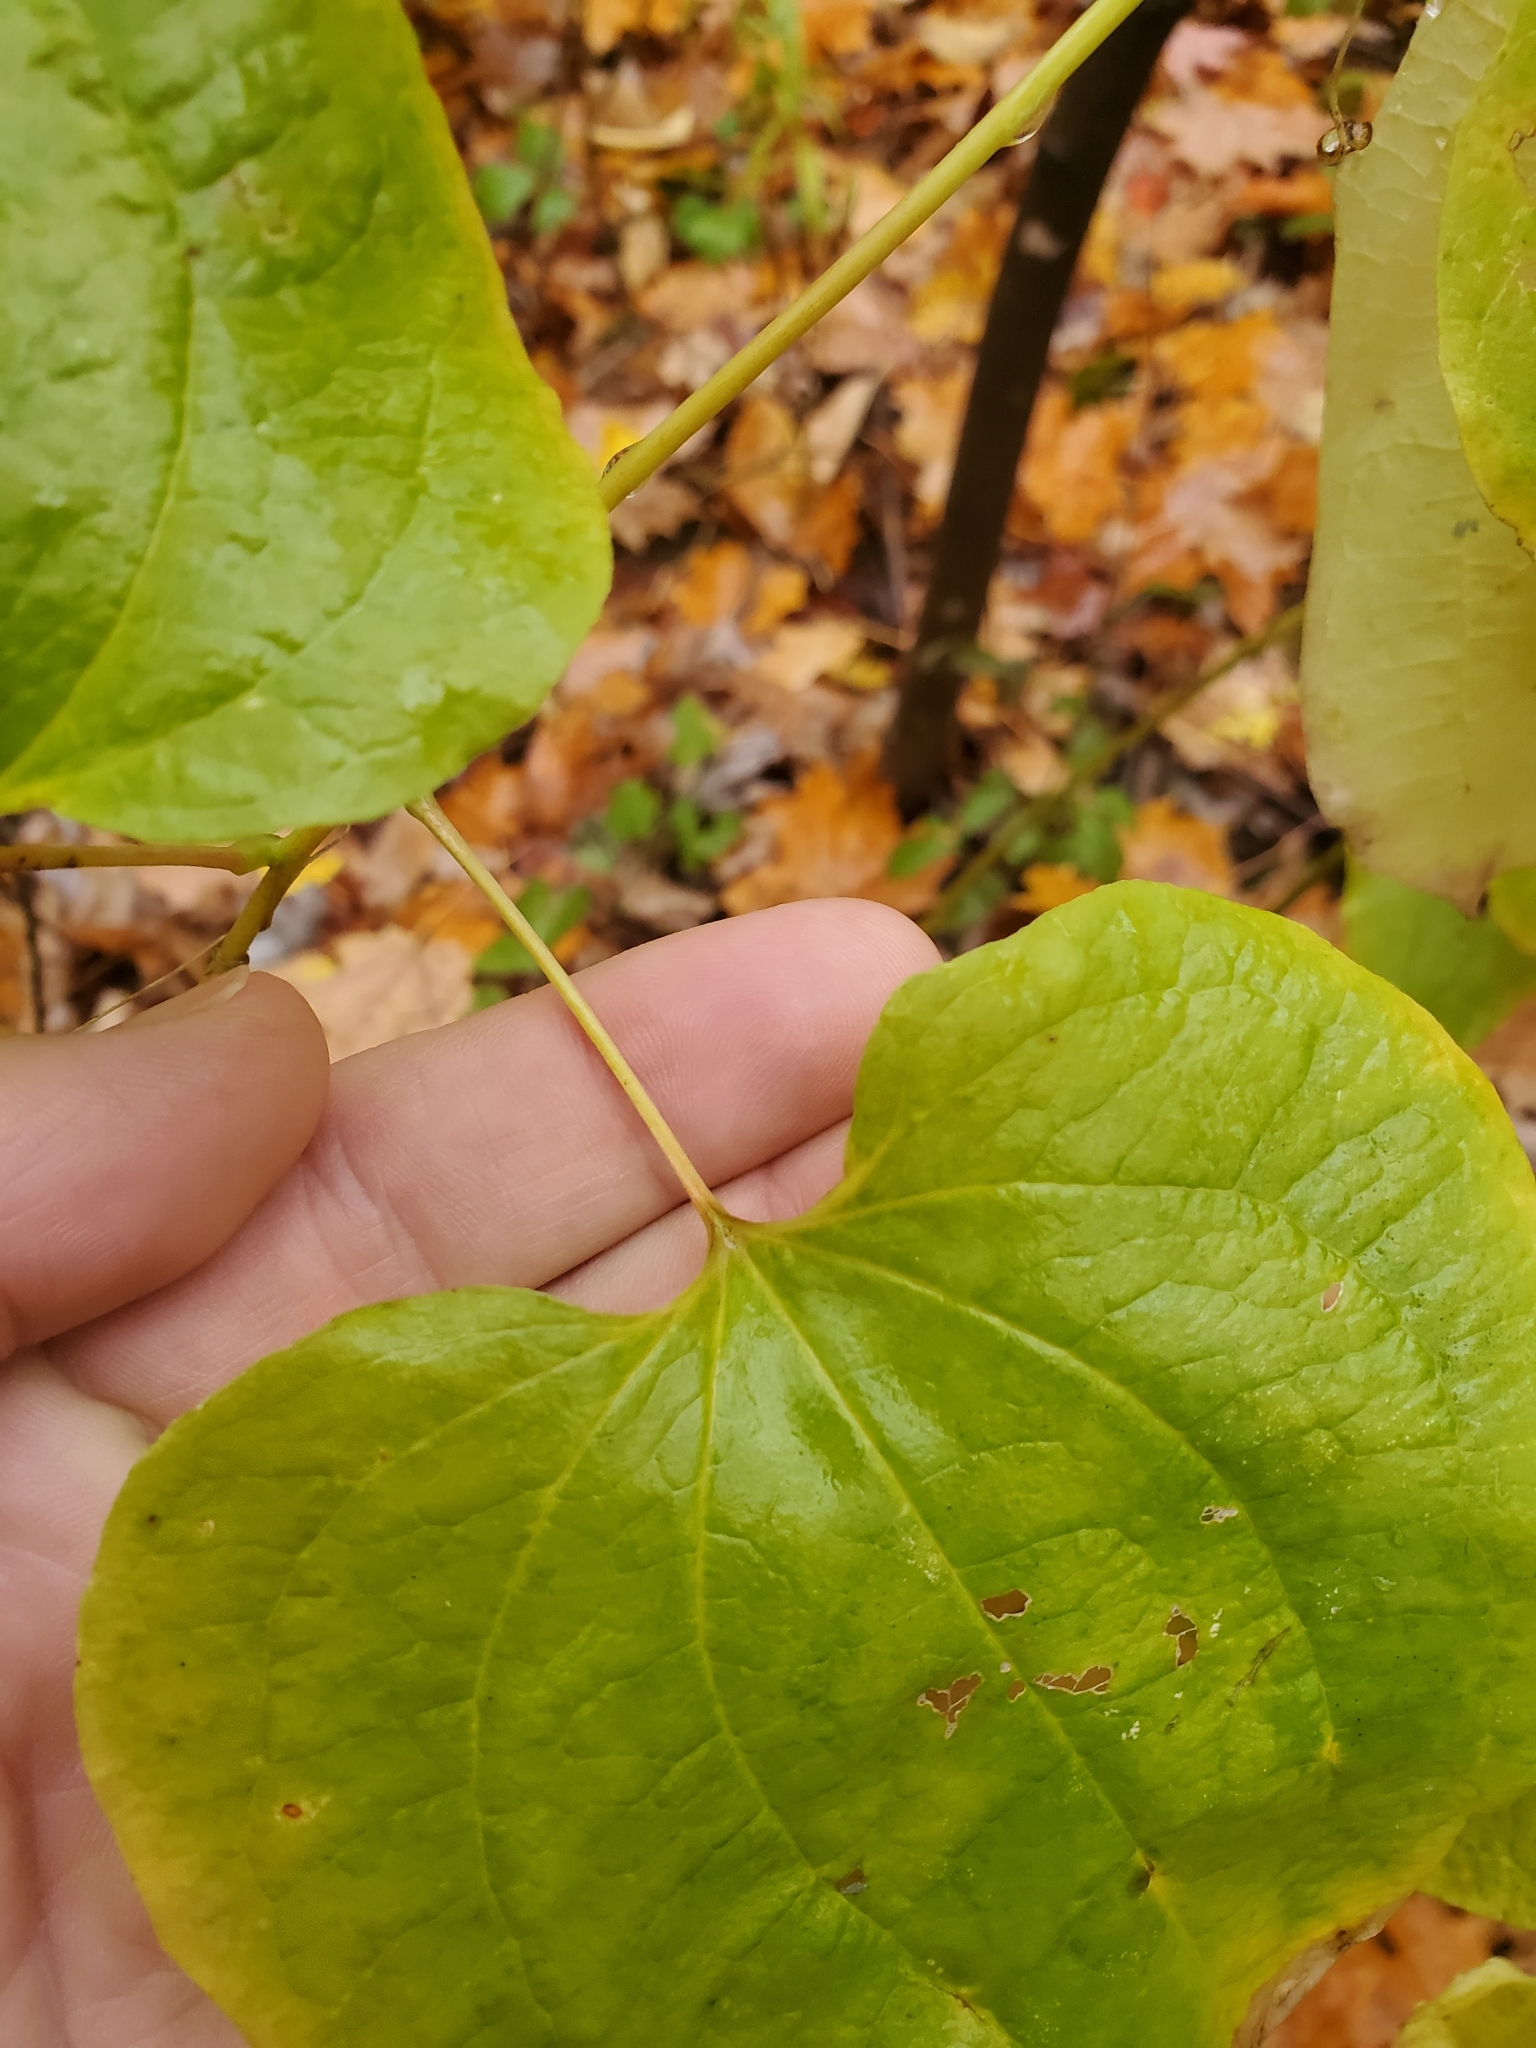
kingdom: Plantae
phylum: Tracheophyta
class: Liliopsida
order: Liliales
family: Smilacaceae
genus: Smilax
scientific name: Smilax herbacea
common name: Jacob's-ladder
